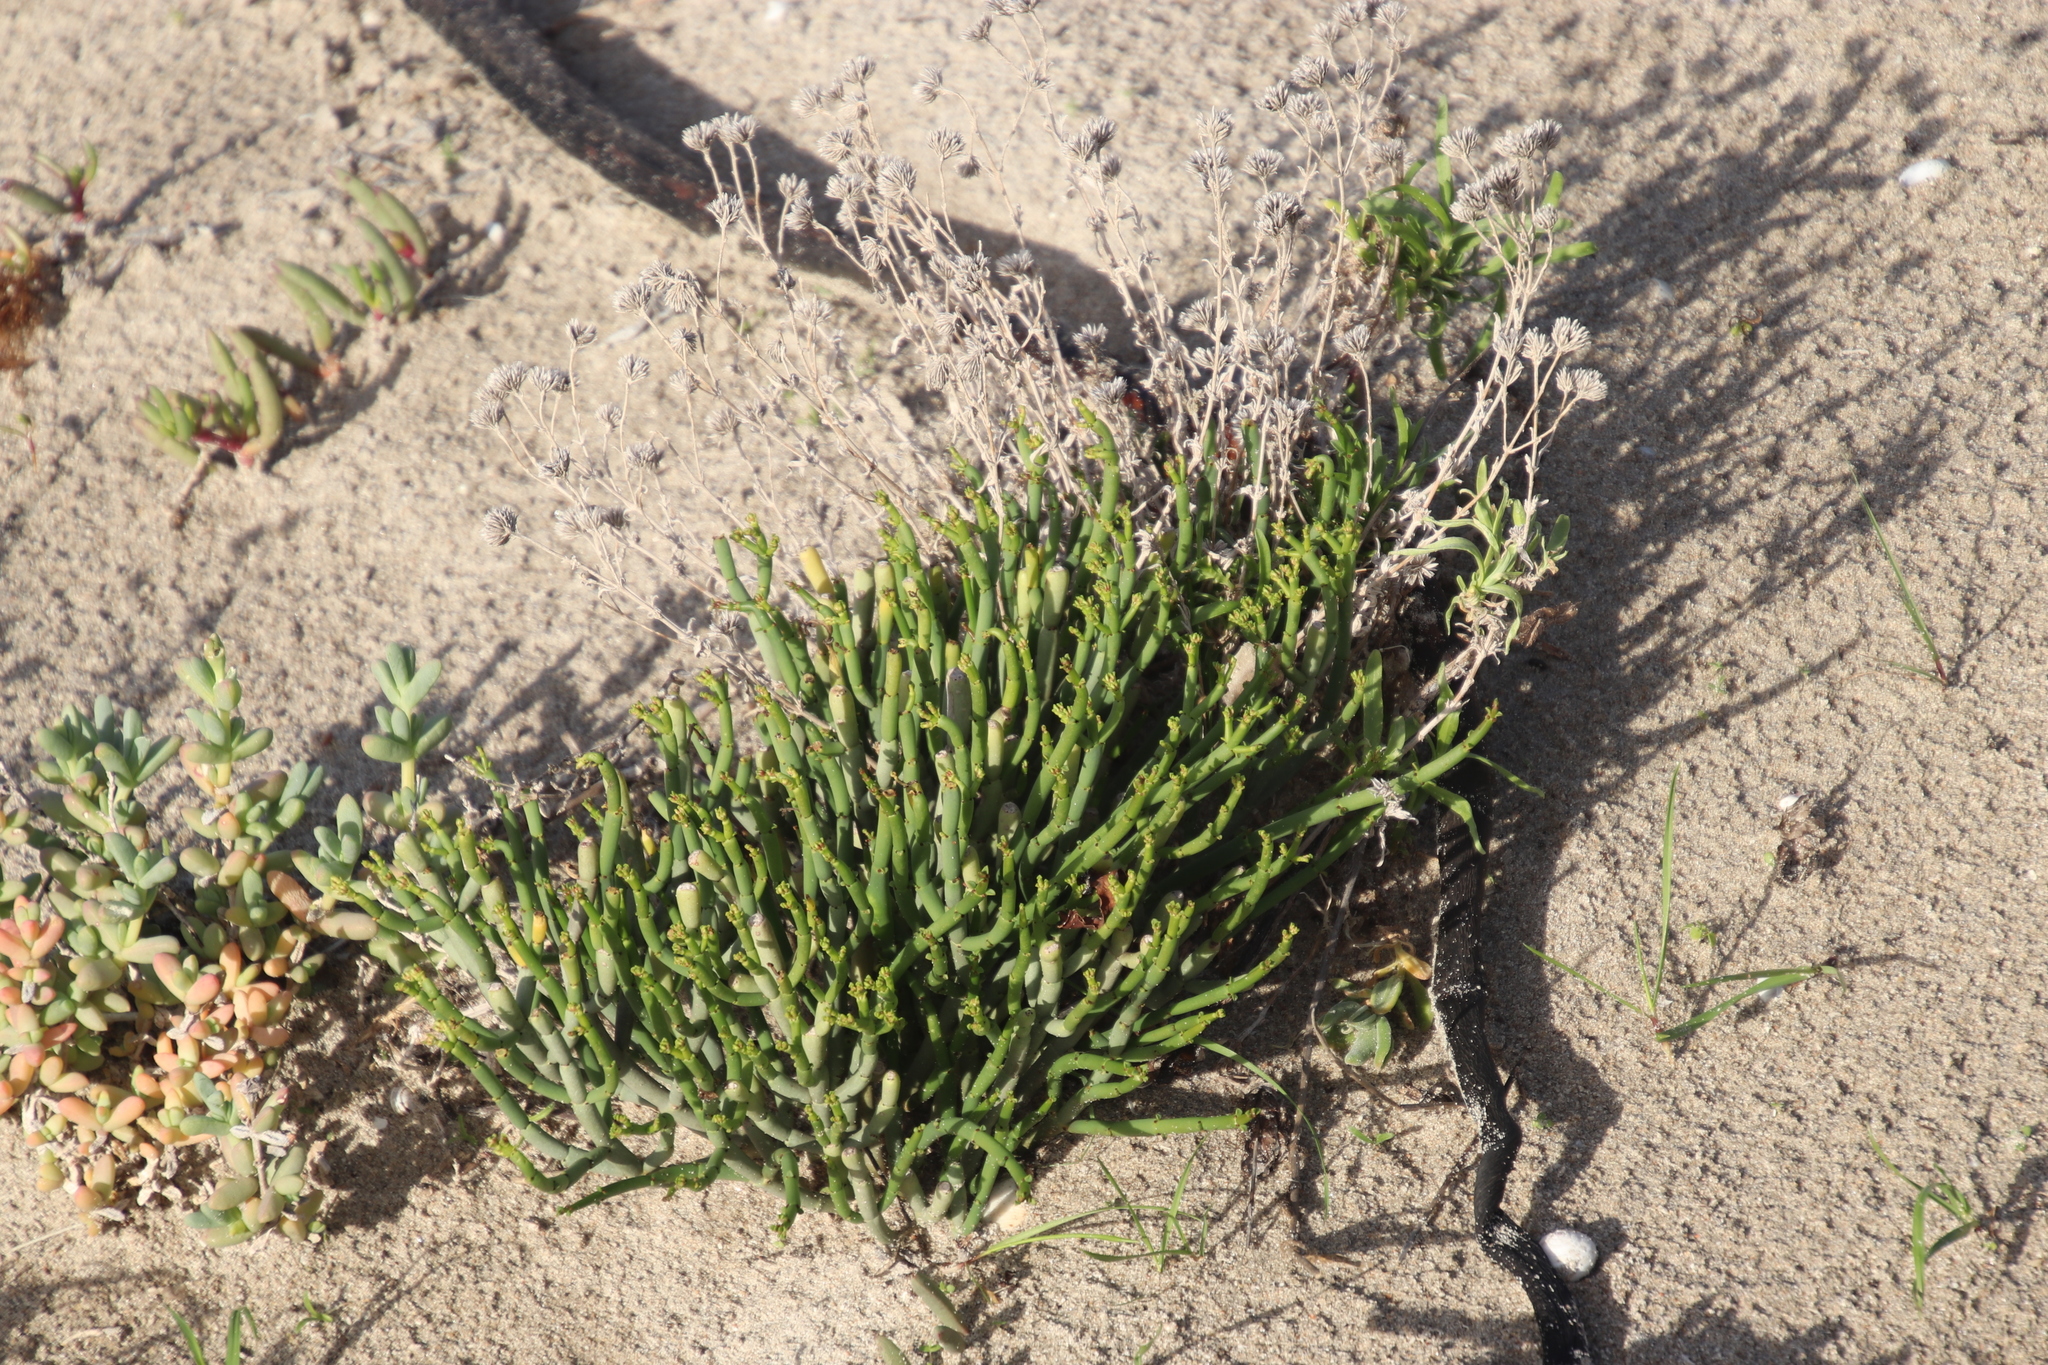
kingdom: Plantae
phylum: Tracheophyta
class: Magnoliopsida
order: Malpighiales
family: Euphorbiaceae
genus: Euphorbia
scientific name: Euphorbia burmanni
